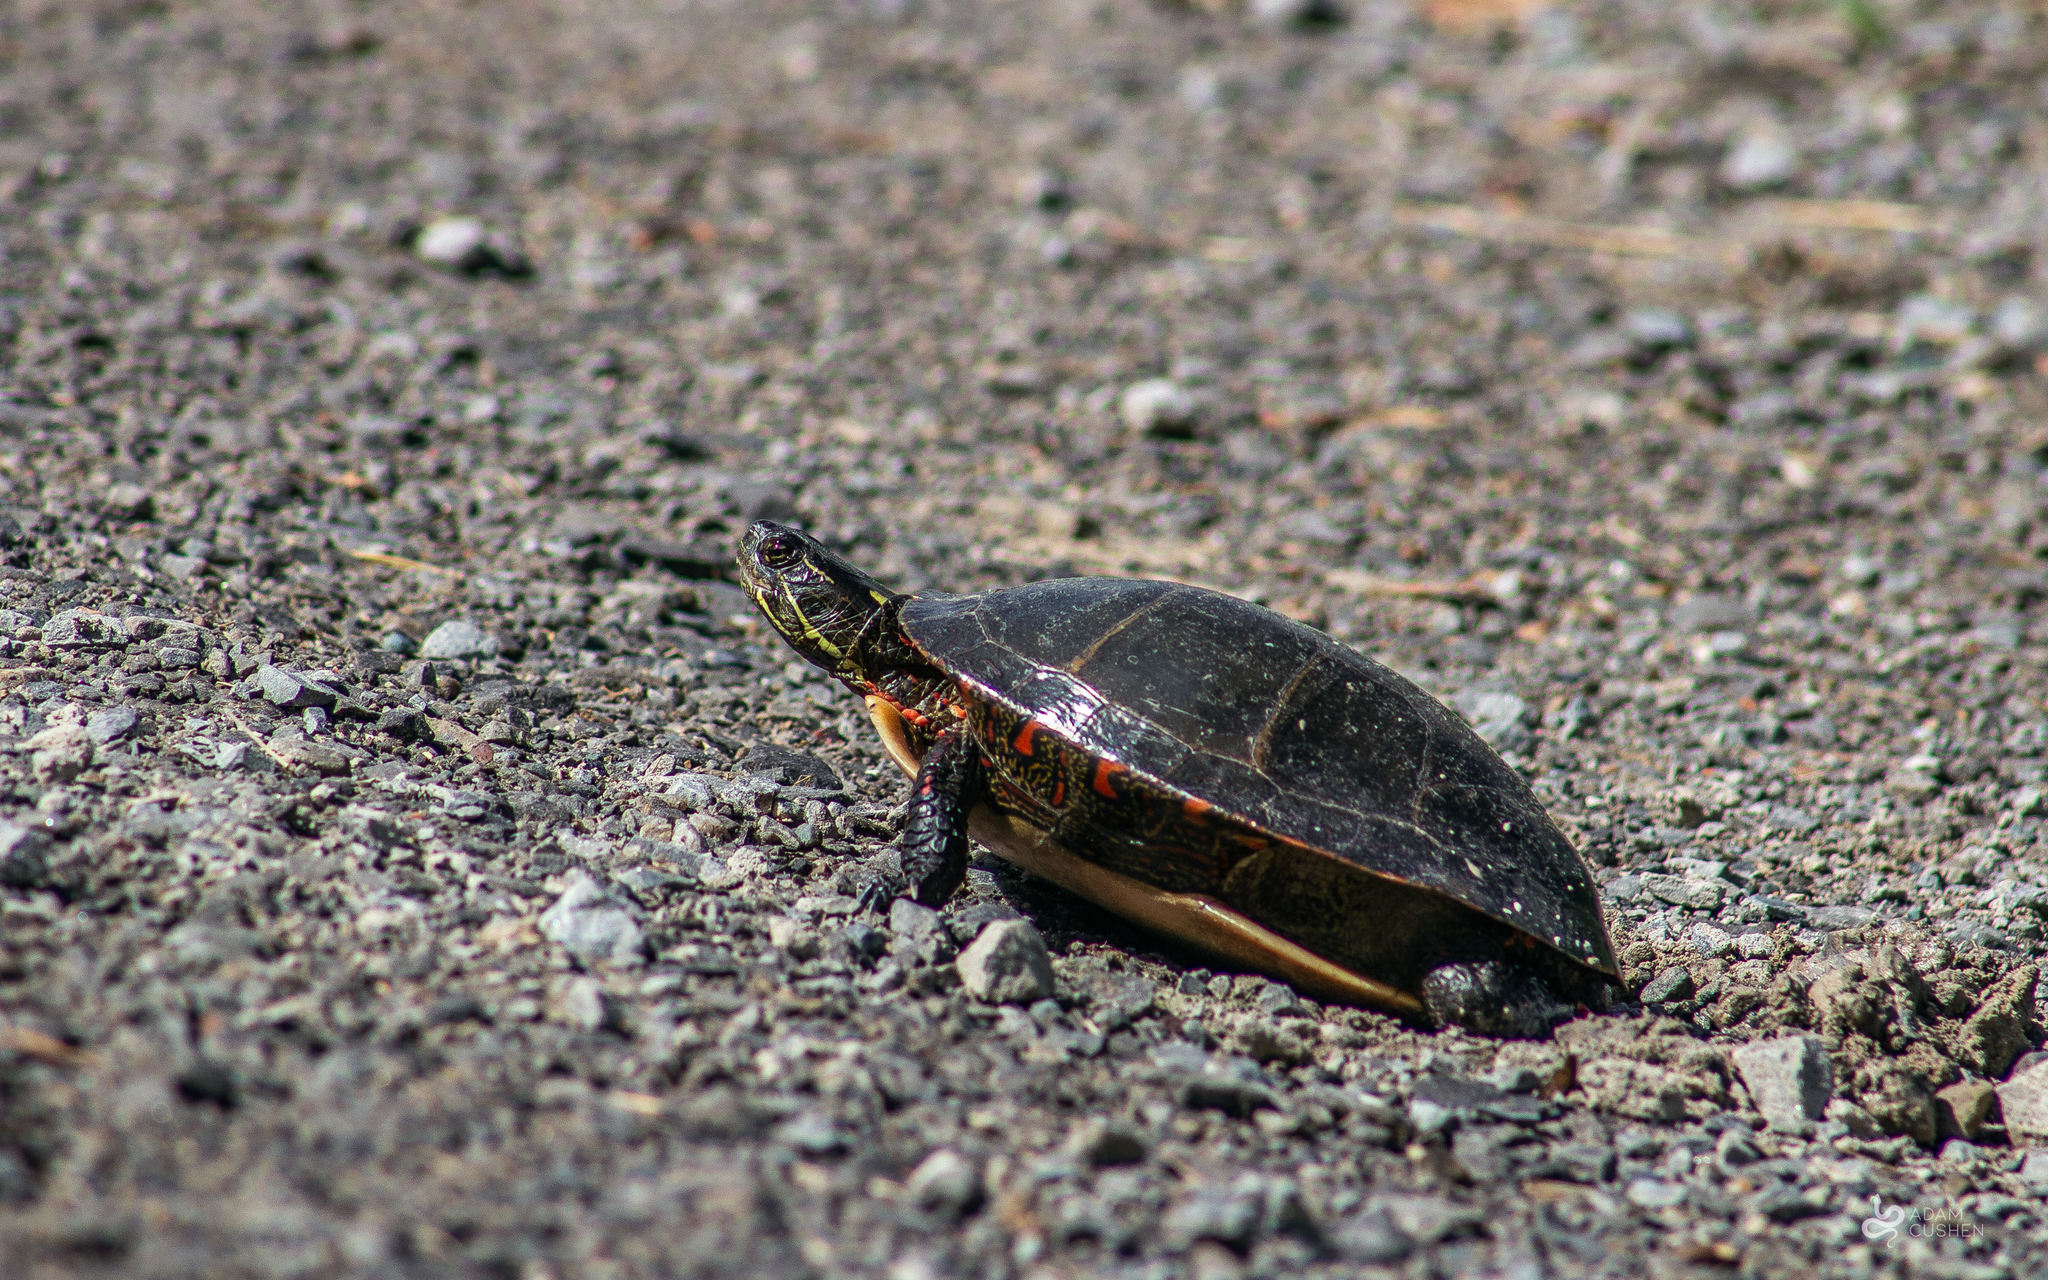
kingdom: Animalia
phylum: Chordata
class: Testudines
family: Emydidae
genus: Chrysemys
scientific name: Chrysemys picta
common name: Painted turtle
